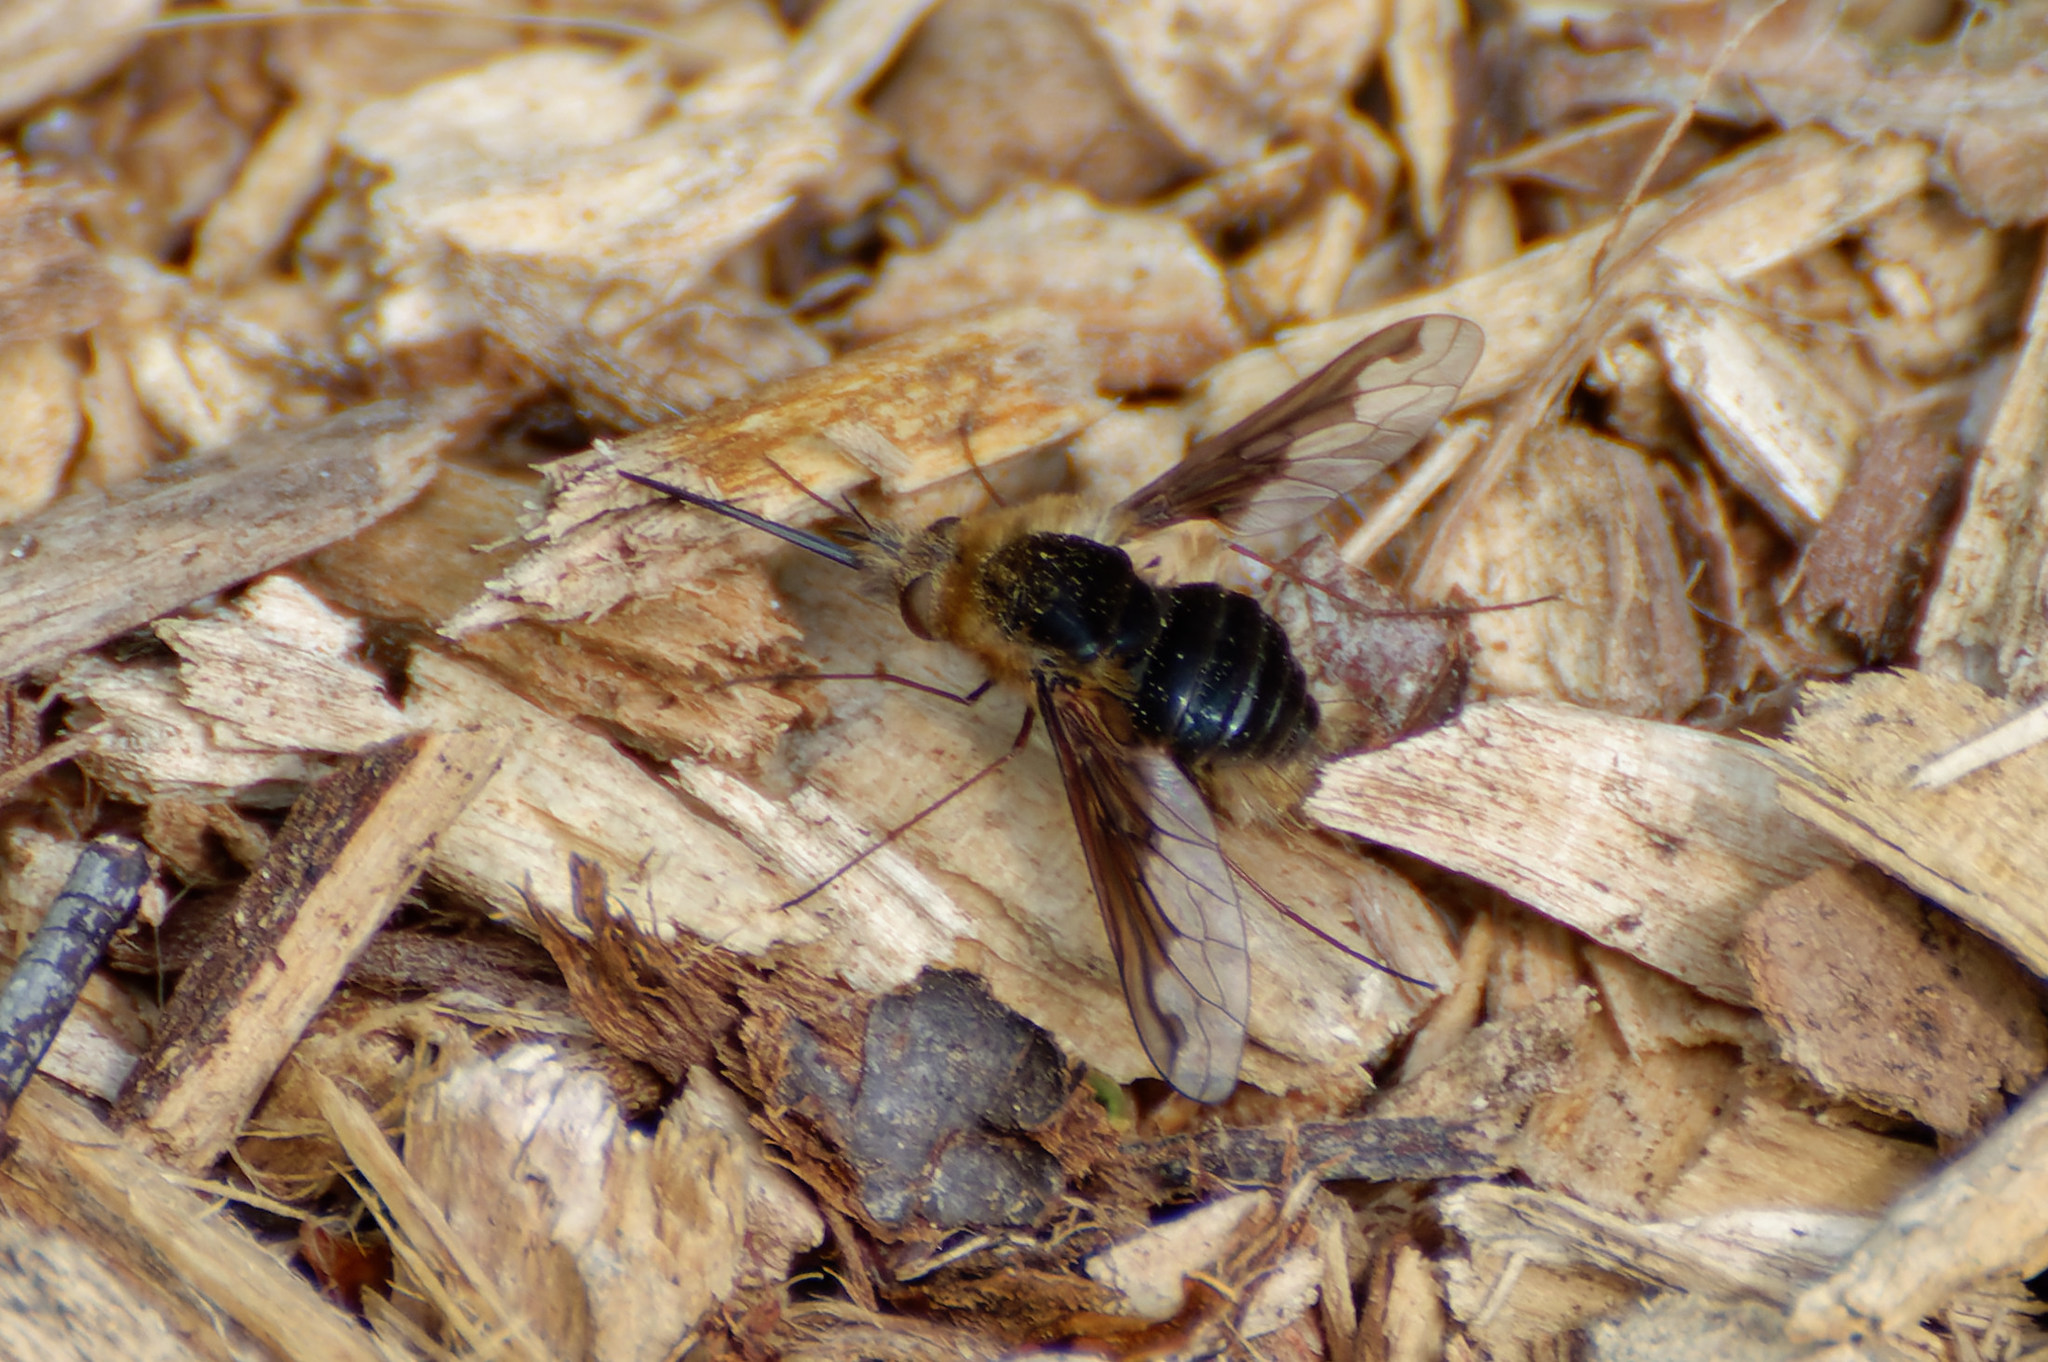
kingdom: Animalia
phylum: Arthropoda
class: Insecta
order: Diptera
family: Bombyliidae
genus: Bombylius
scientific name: Bombylius major
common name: Bee fly
